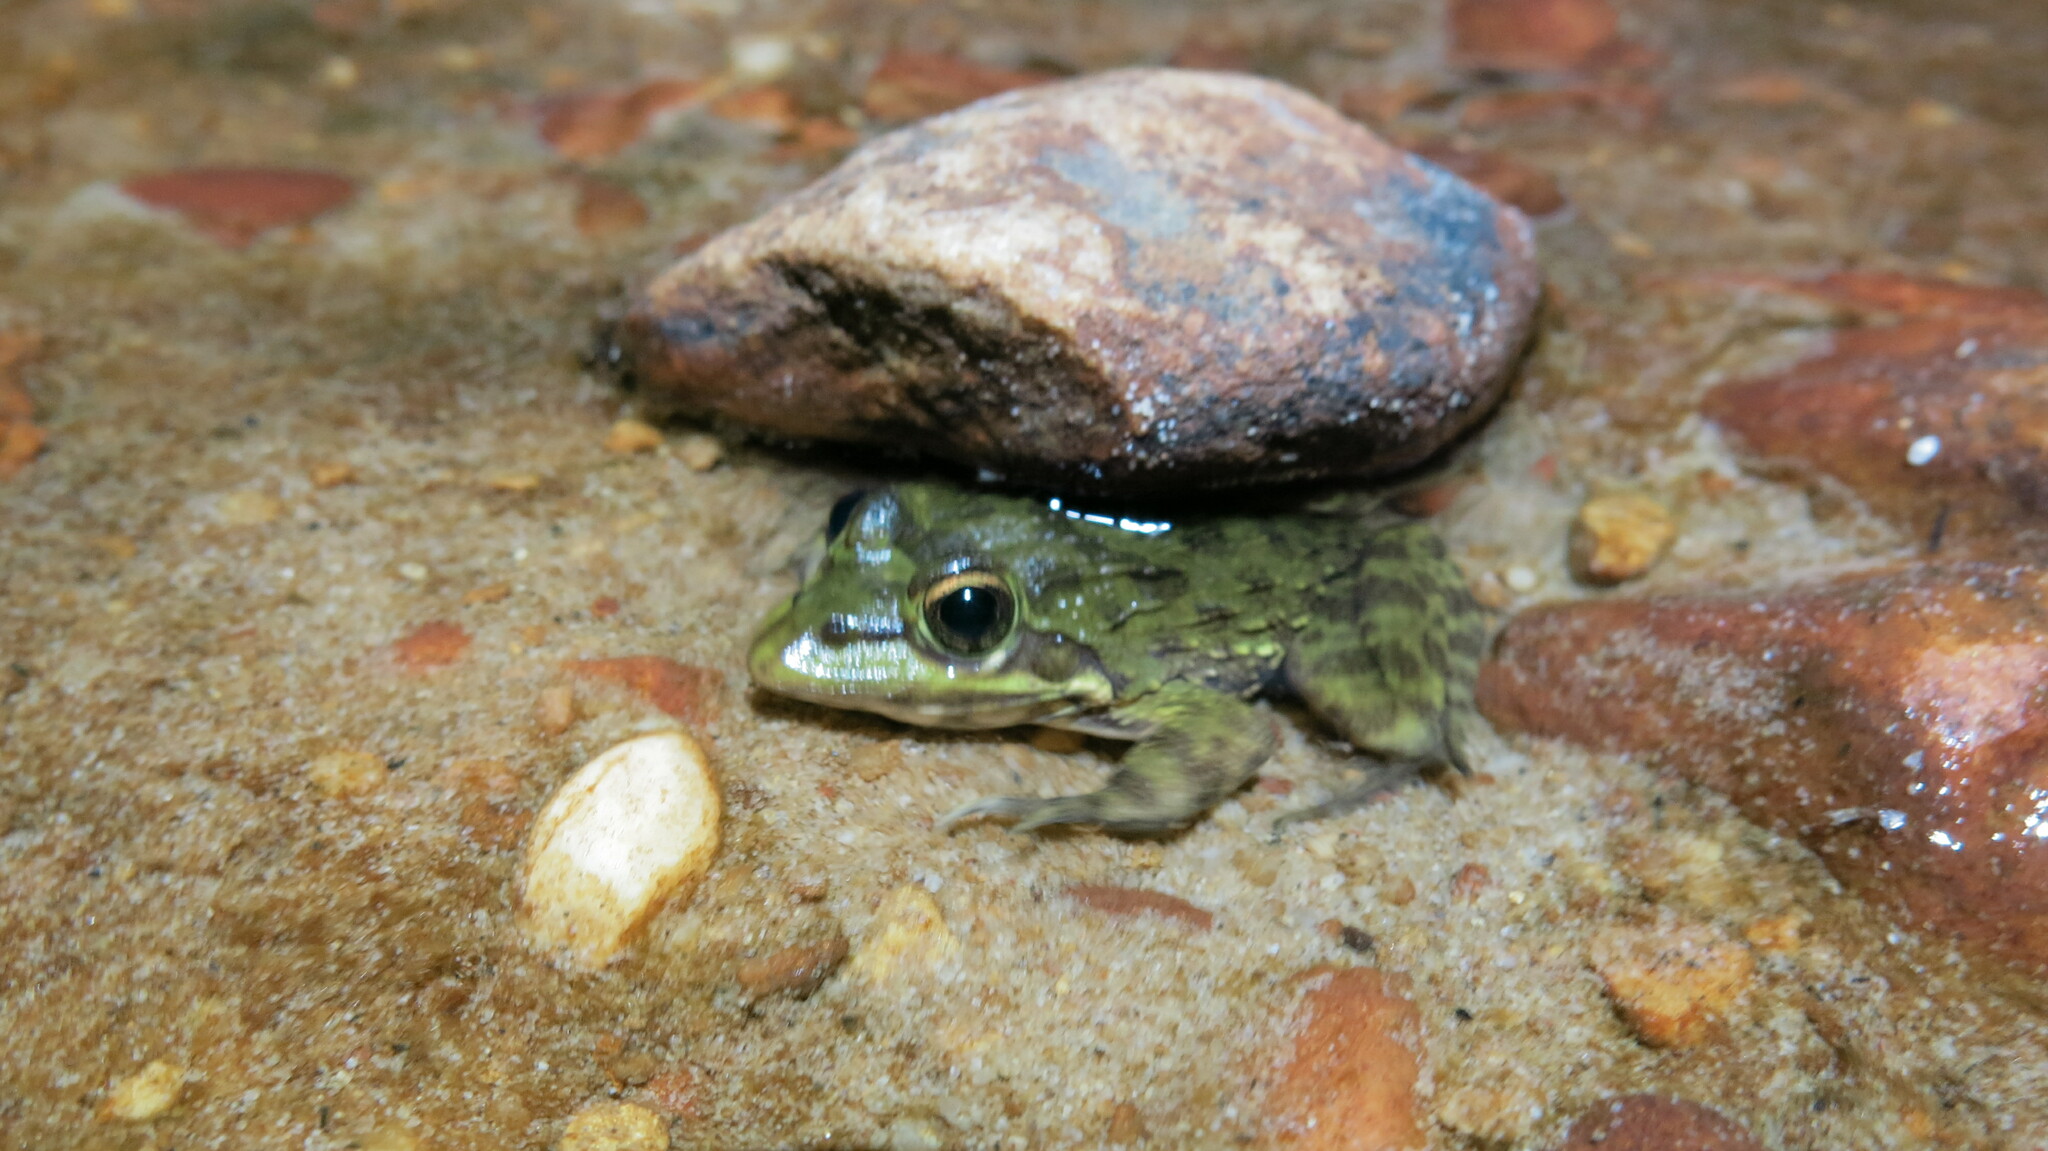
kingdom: Animalia
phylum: Chordata
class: Amphibia
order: Anura
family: Pyxicephalidae
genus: Amietia
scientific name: Amietia fuscigula
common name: Cape rana
